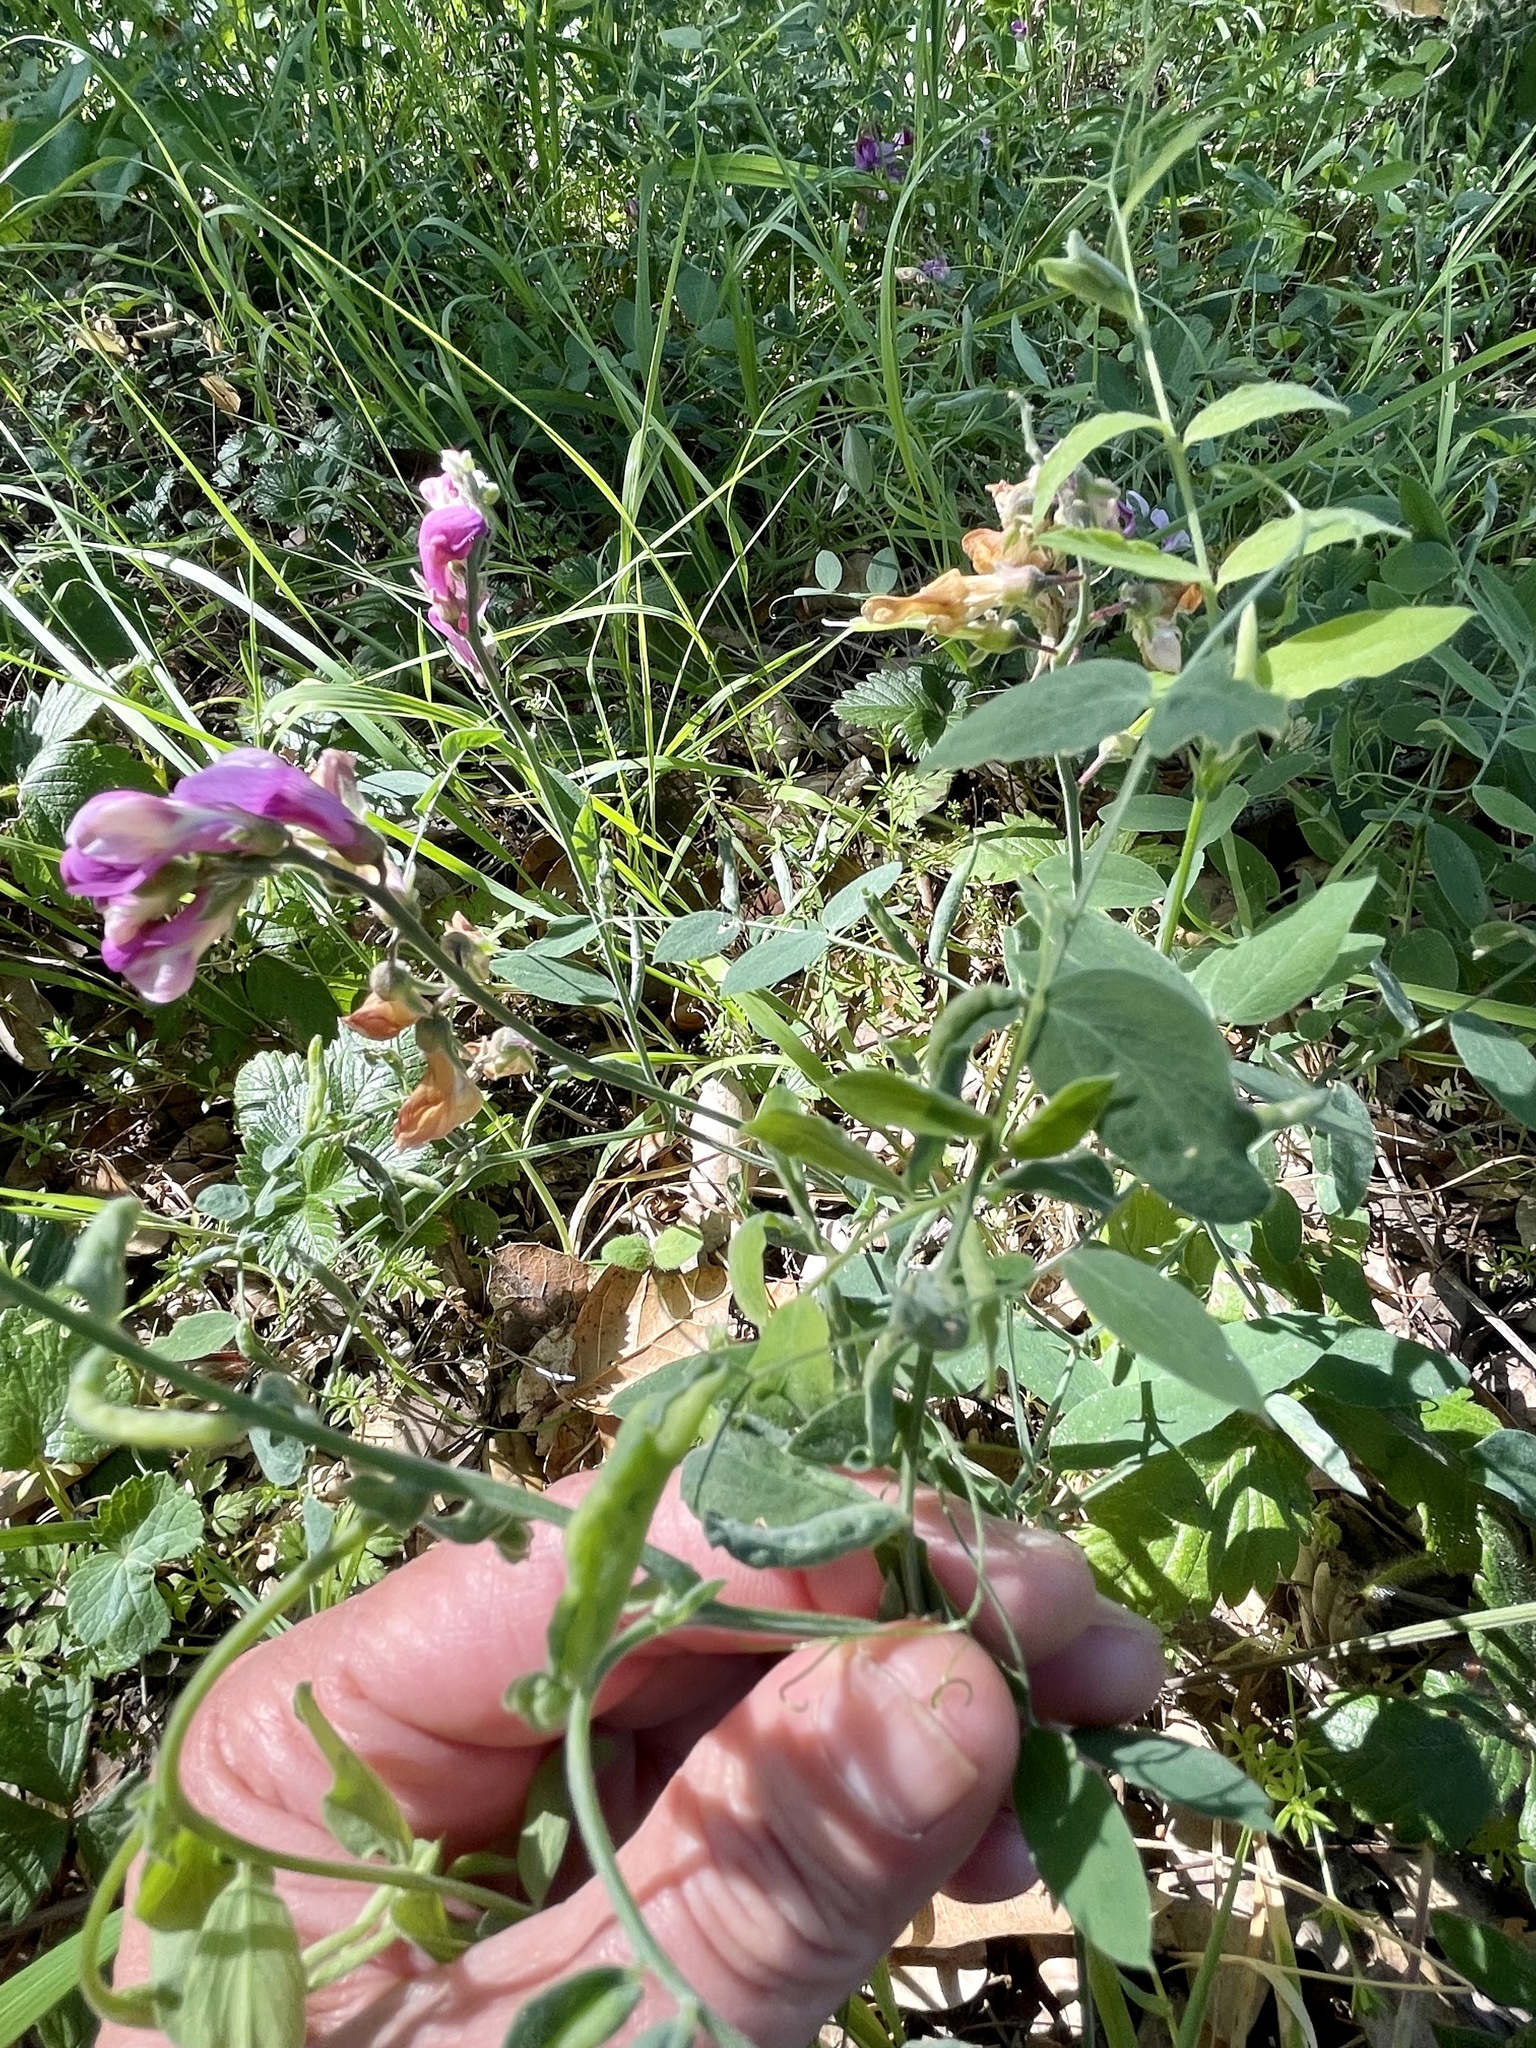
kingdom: Plantae
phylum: Tracheophyta
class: Magnoliopsida
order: Fabales
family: Fabaceae
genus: Lathyrus
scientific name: Lathyrus vestitus
